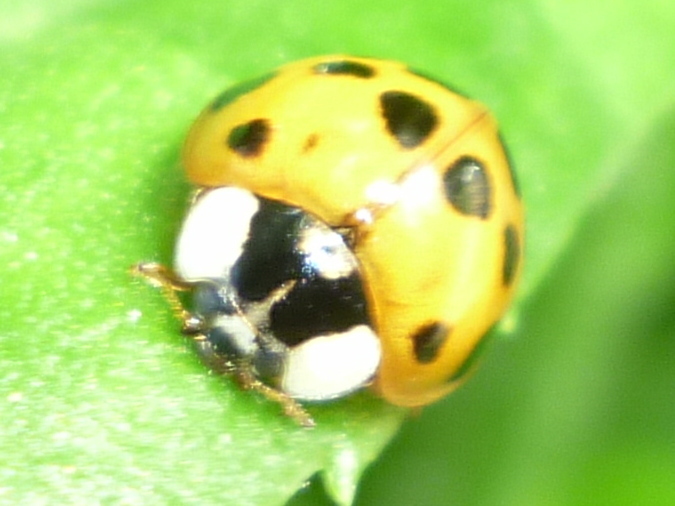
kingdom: Animalia
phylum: Arthropoda
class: Insecta
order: Coleoptera
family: Coccinellidae
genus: Harmonia
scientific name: Harmonia axyridis
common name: Harlequin ladybird
